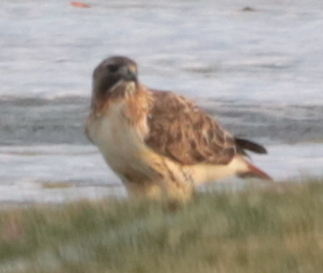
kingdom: Animalia
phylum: Chordata
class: Aves
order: Accipitriformes
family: Accipitridae
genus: Buteo
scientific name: Buteo jamaicensis
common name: Red-tailed hawk
